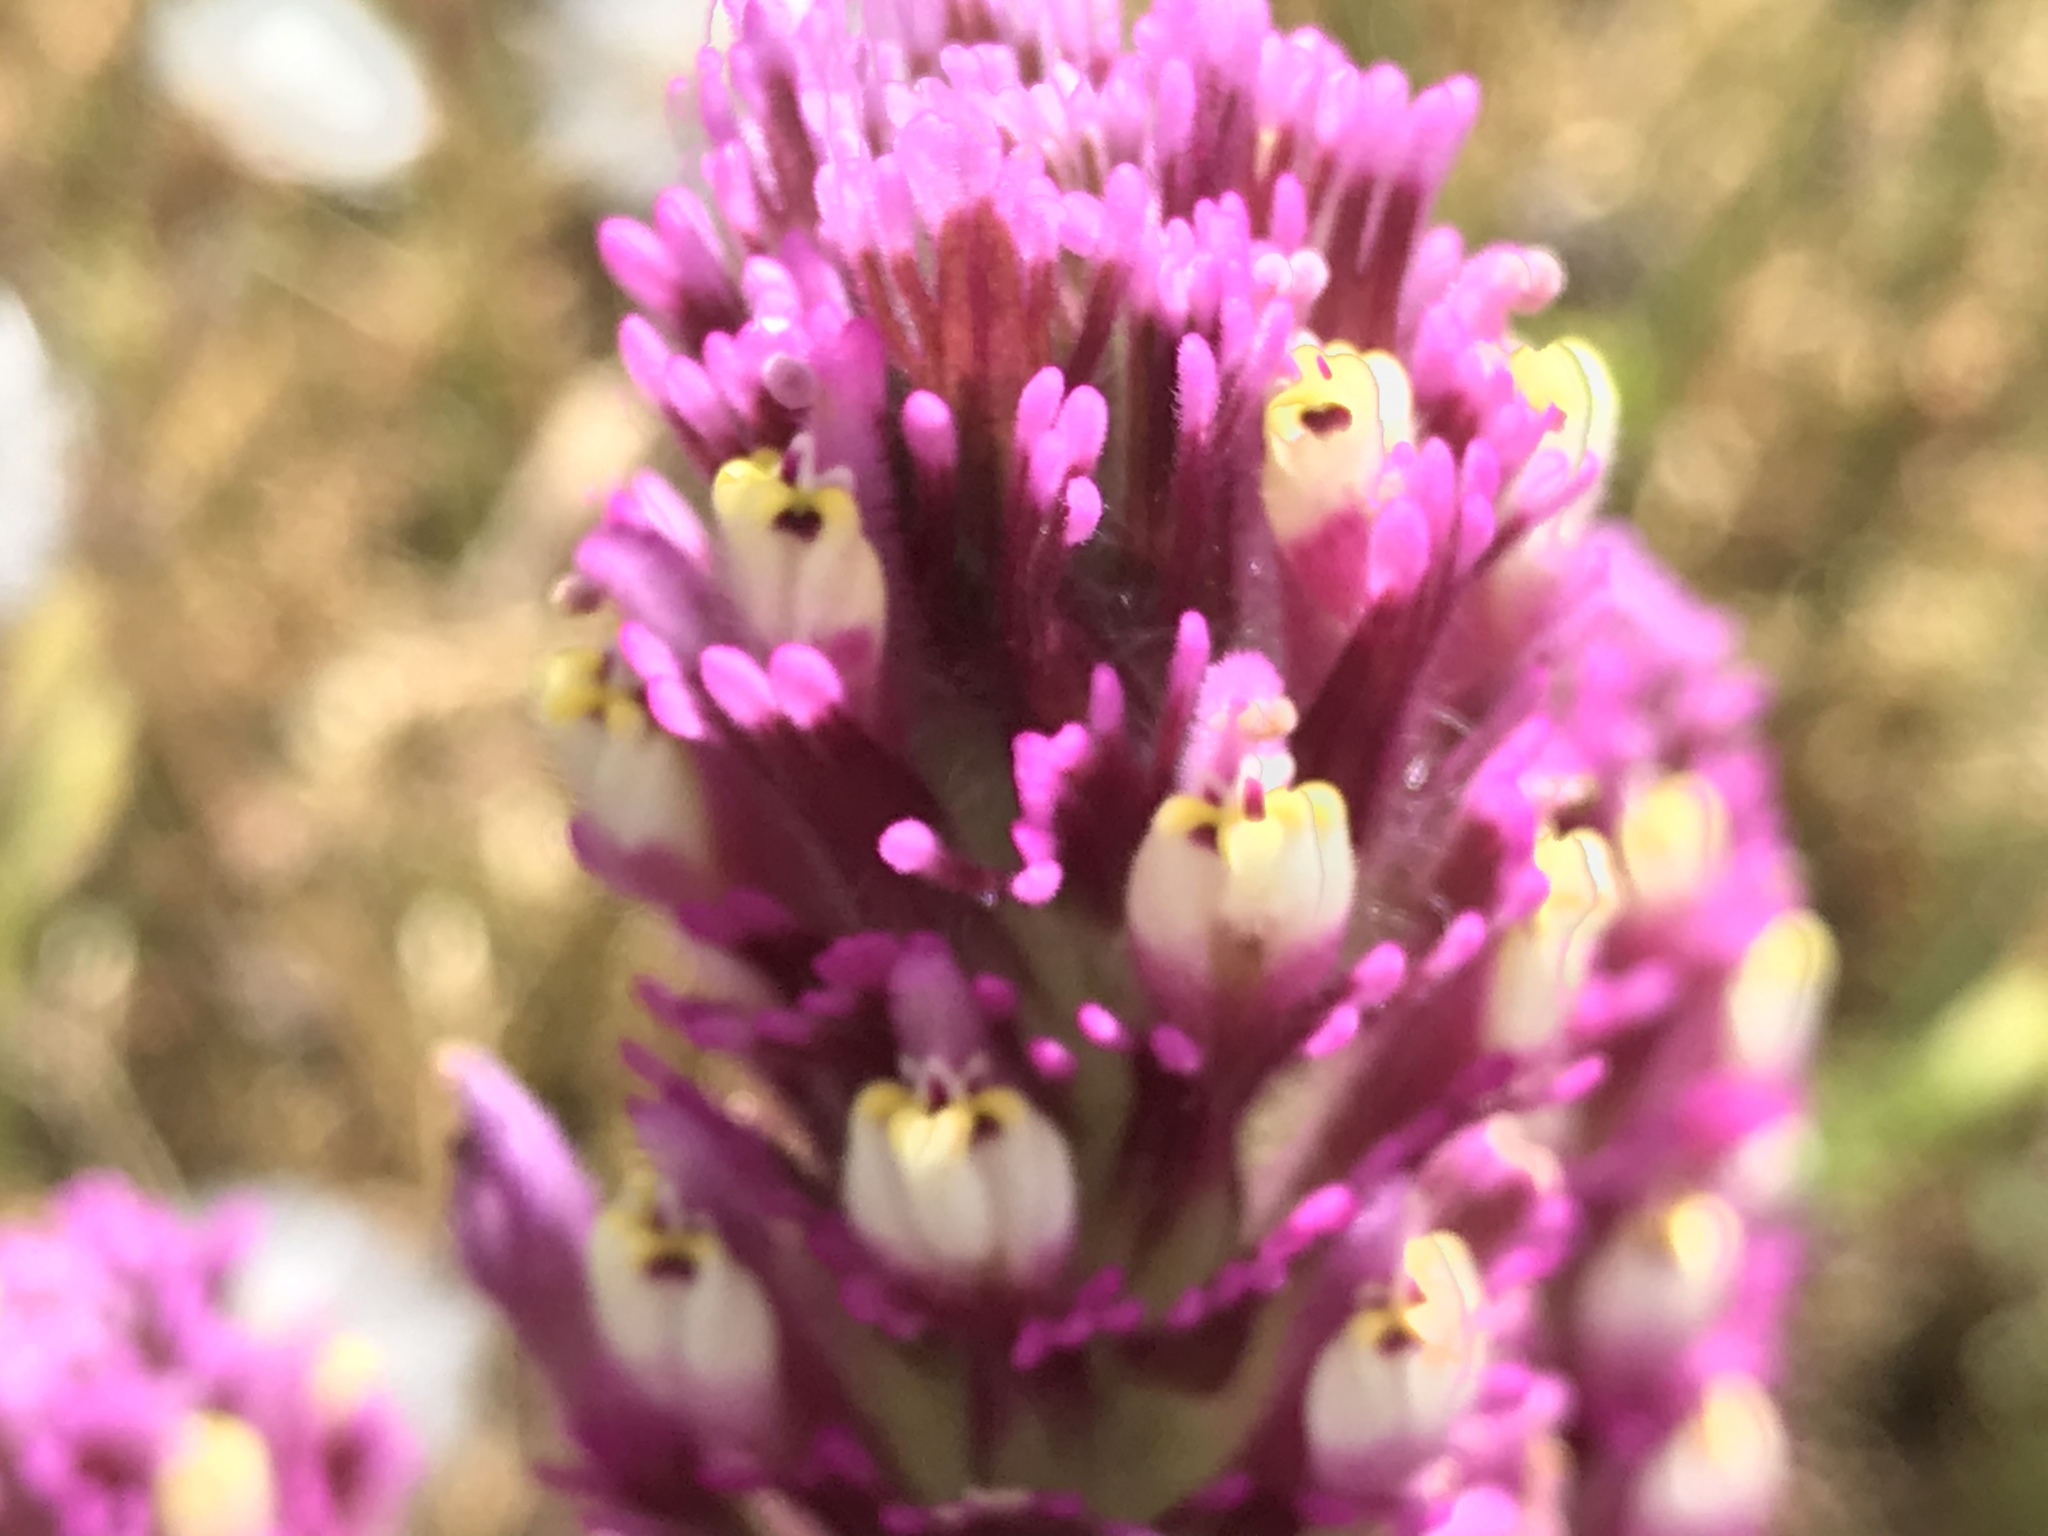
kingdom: Plantae
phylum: Tracheophyta
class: Magnoliopsida
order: Lamiales
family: Orobanchaceae
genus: Castilleja
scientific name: Castilleja exserta
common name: Purple owl-clover
